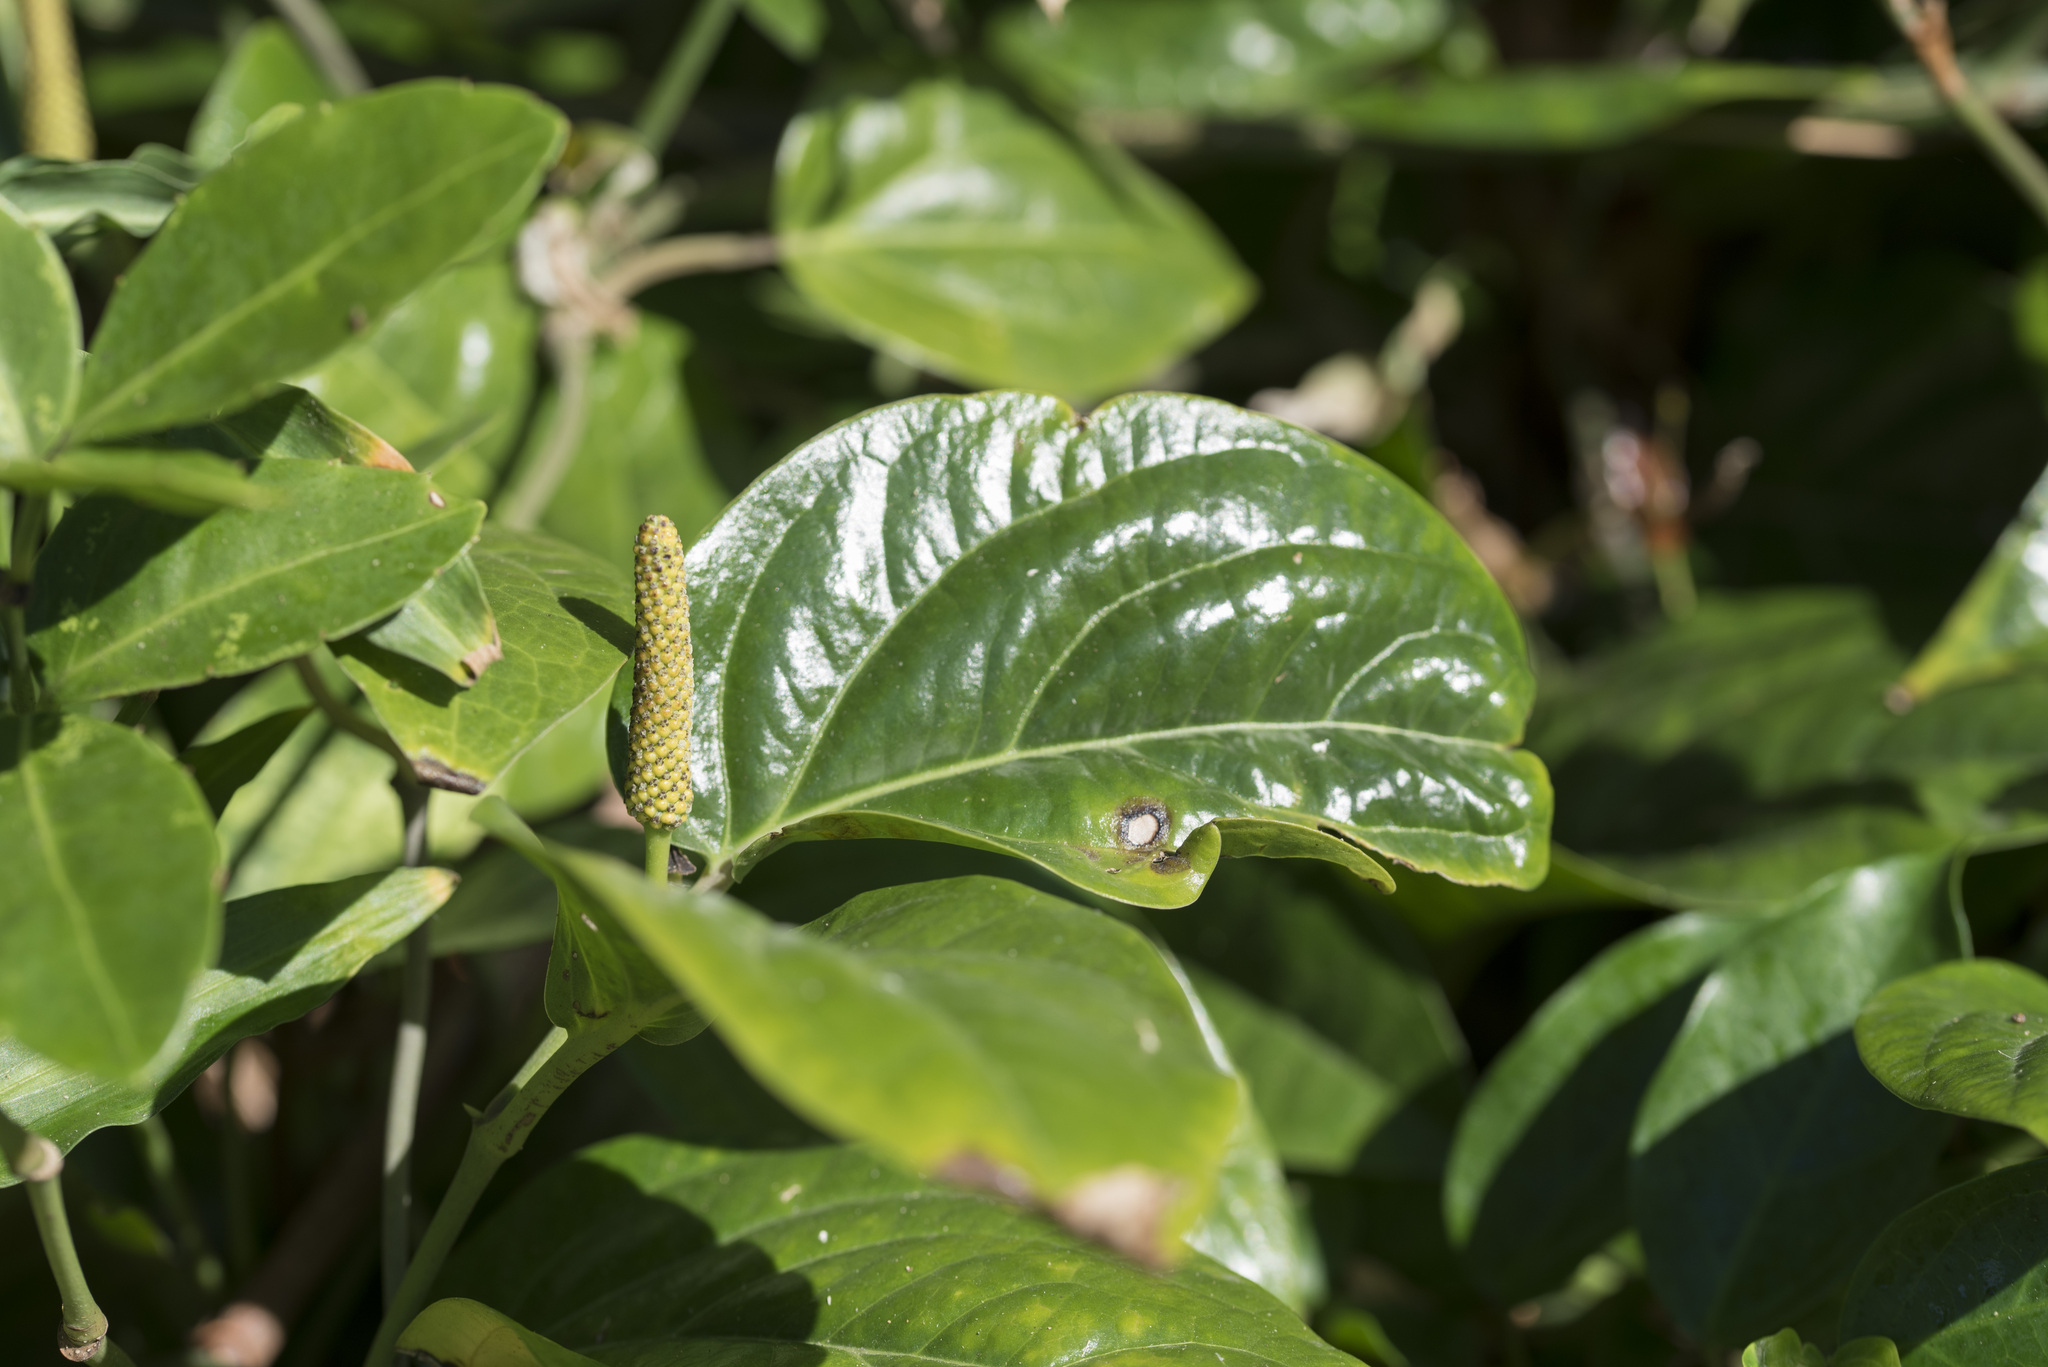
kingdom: Plantae
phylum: Tracheophyta
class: Magnoliopsida
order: Piperales
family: Piperaceae
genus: Piper
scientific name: Piper kawakamii
